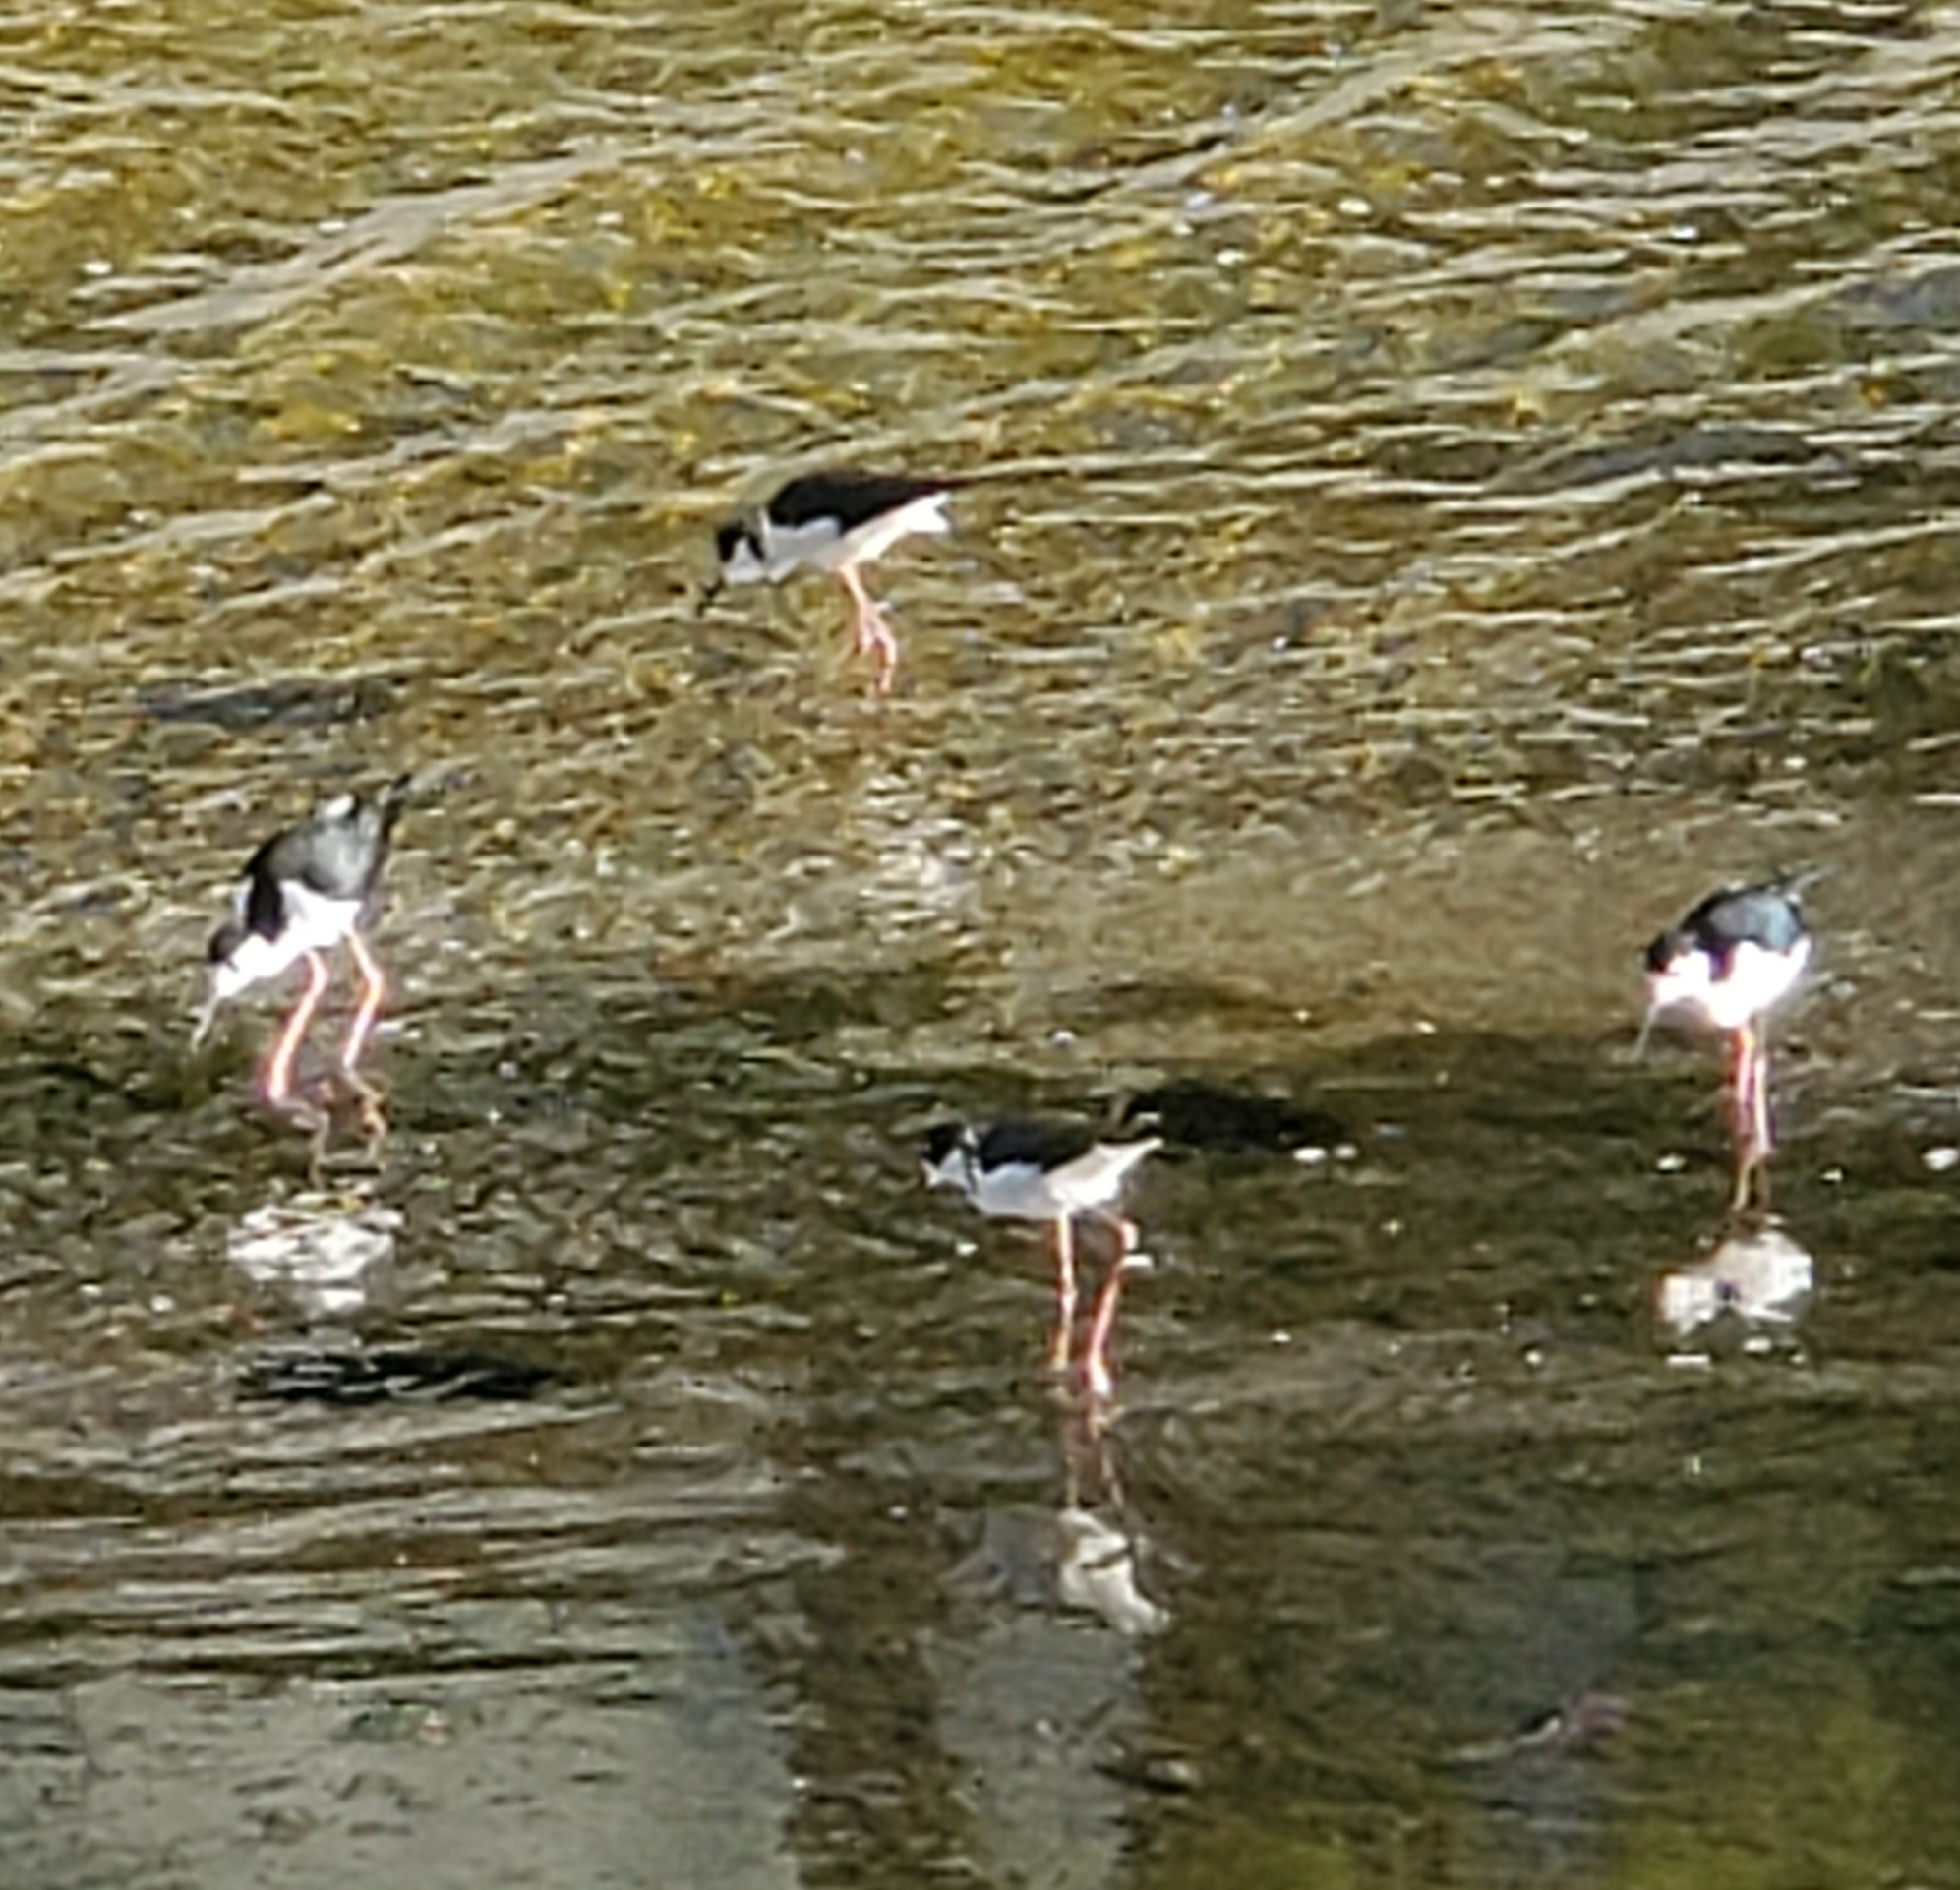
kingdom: Animalia
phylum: Chordata
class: Aves
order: Charadriiformes
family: Recurvirostridae
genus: Himantopus
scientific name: Himantopus mexicanus
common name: Black-necked stilt
